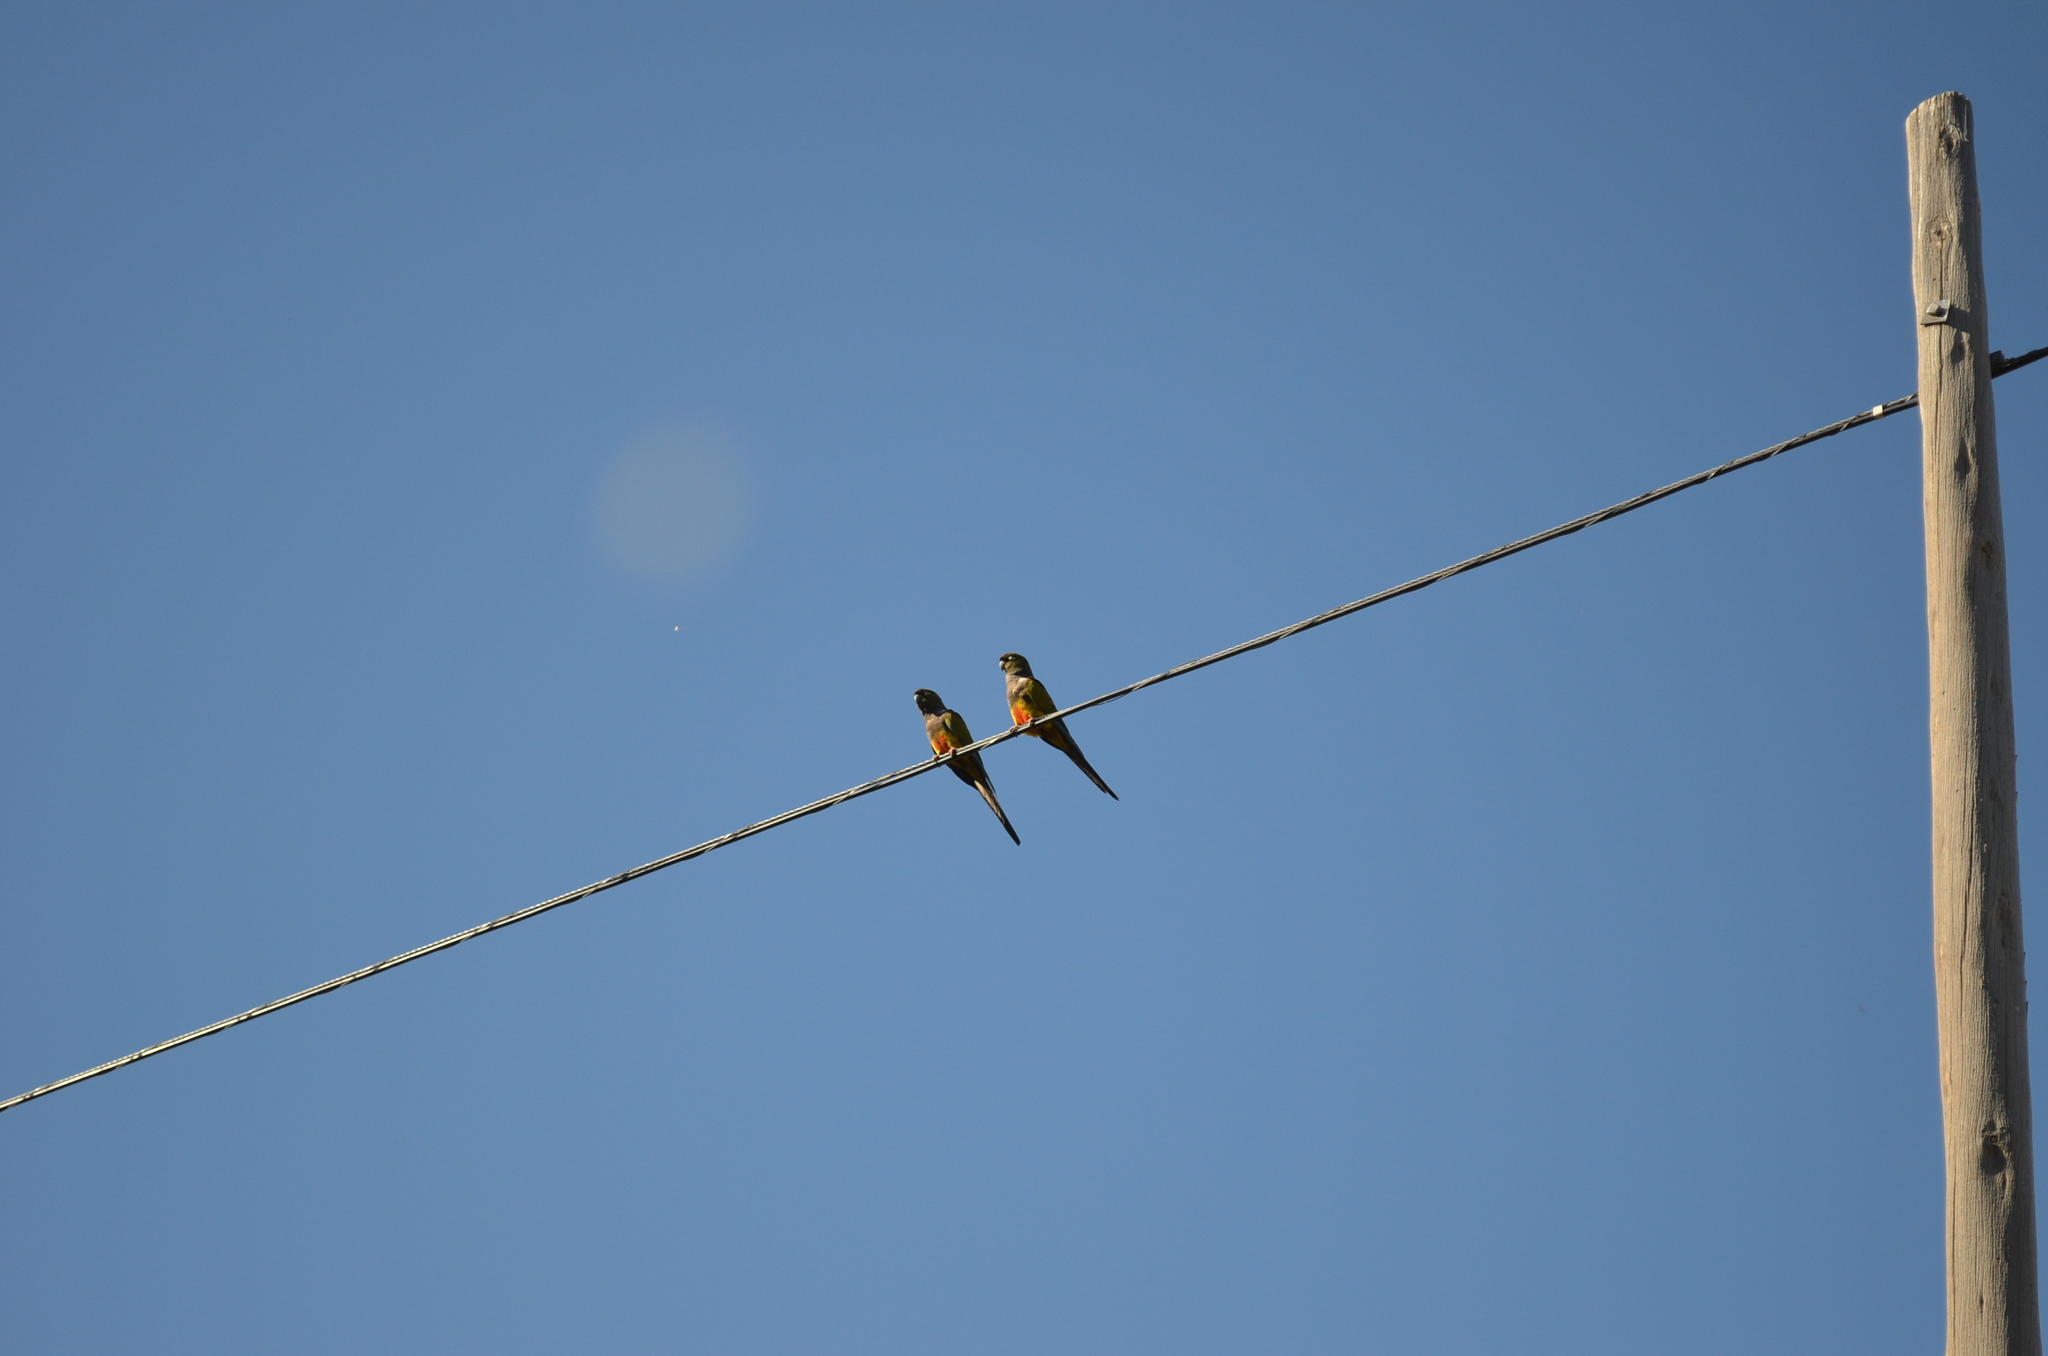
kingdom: Animalia
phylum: Chordata
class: Aves
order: Psittaciformes
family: Psittacidae
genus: Cyanoliseus
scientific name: Cyanoliseus patagonus
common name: Burrowing parrot
